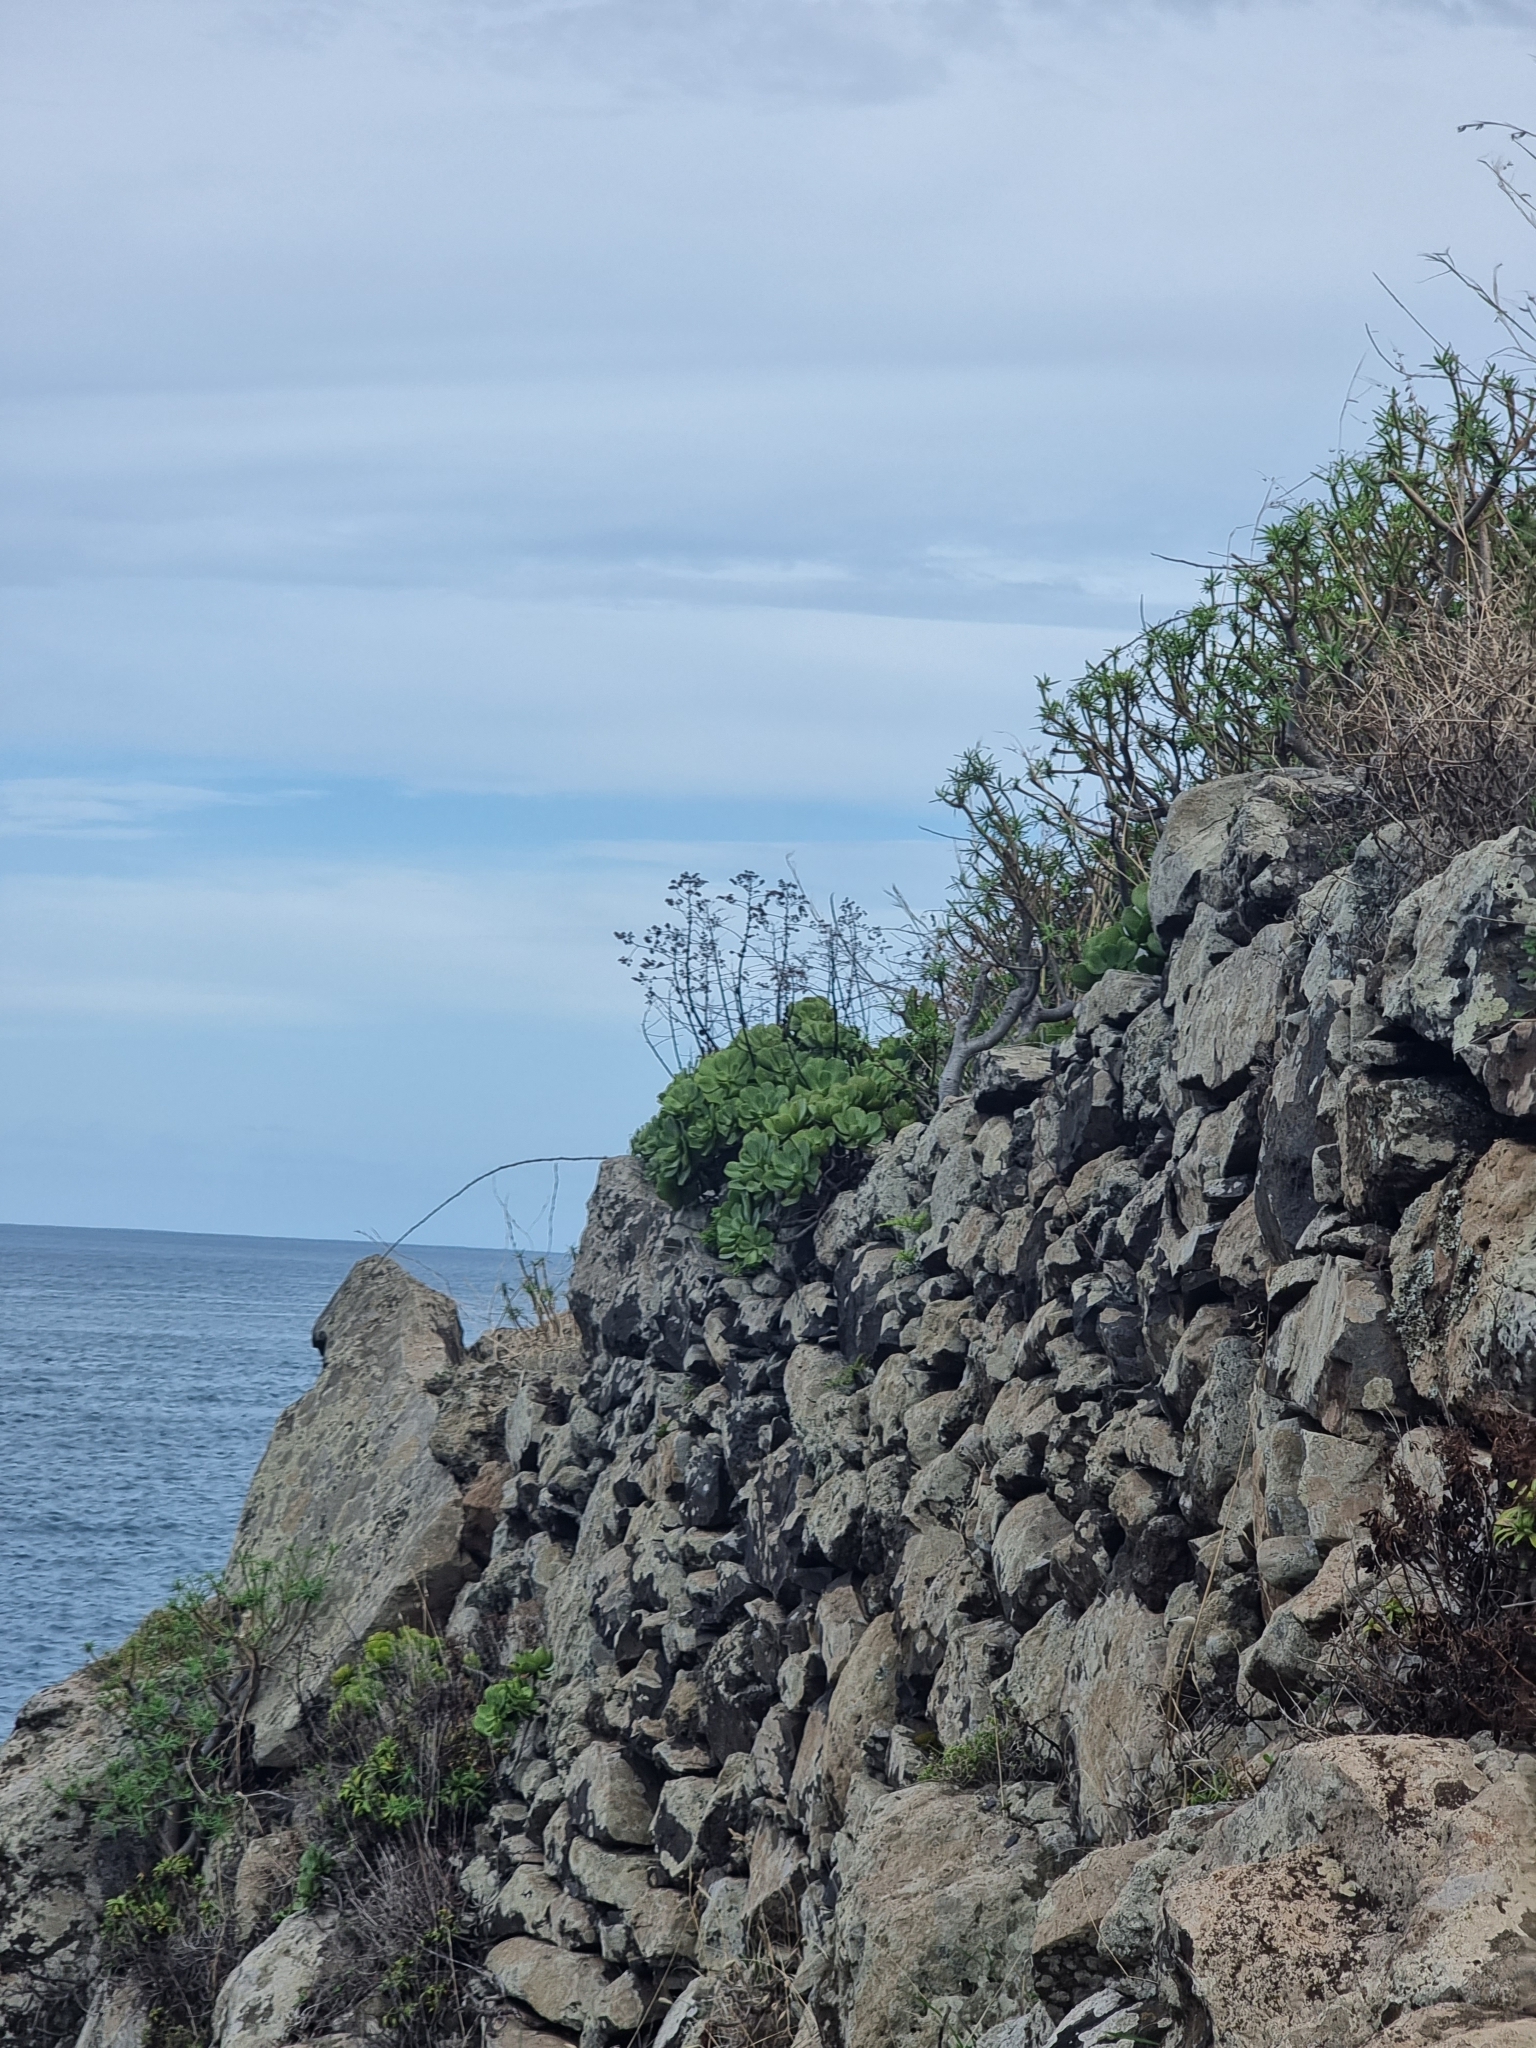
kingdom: Plantae
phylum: Tracheophyta
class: Magnoliopsida
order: Saxifragales
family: Crassulaceae
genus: Aeonium
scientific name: Aeonium glutinosum
